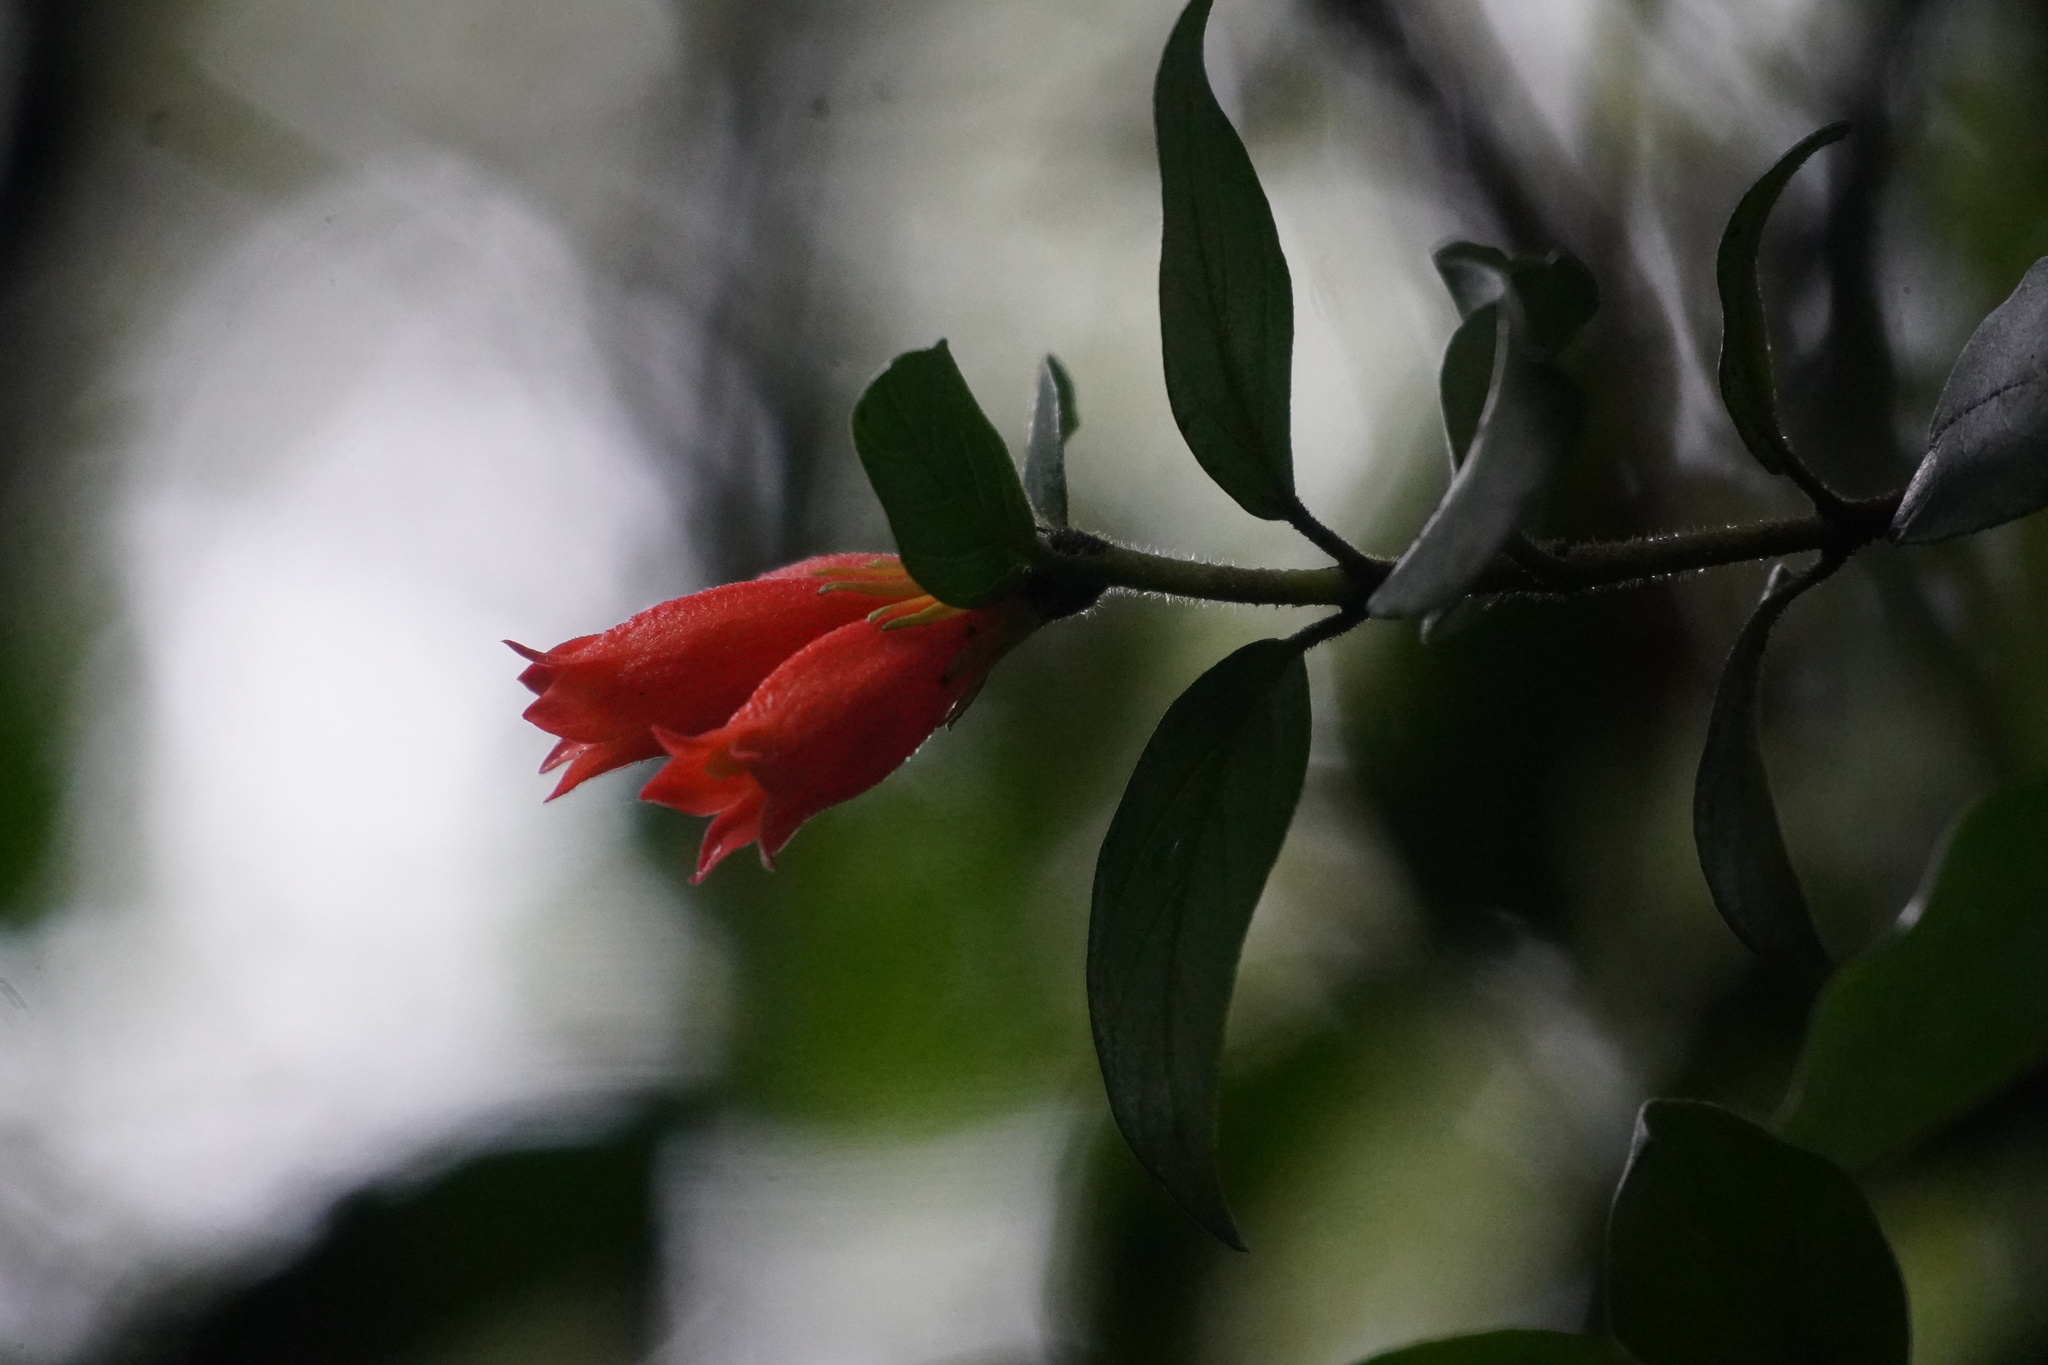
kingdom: Plantae
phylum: Tracheophyta
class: Magnoliopsida
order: Gentianales
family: Rubiaceae
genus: Burchellia
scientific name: Burchellia bubalina
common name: Wild pomegranate
